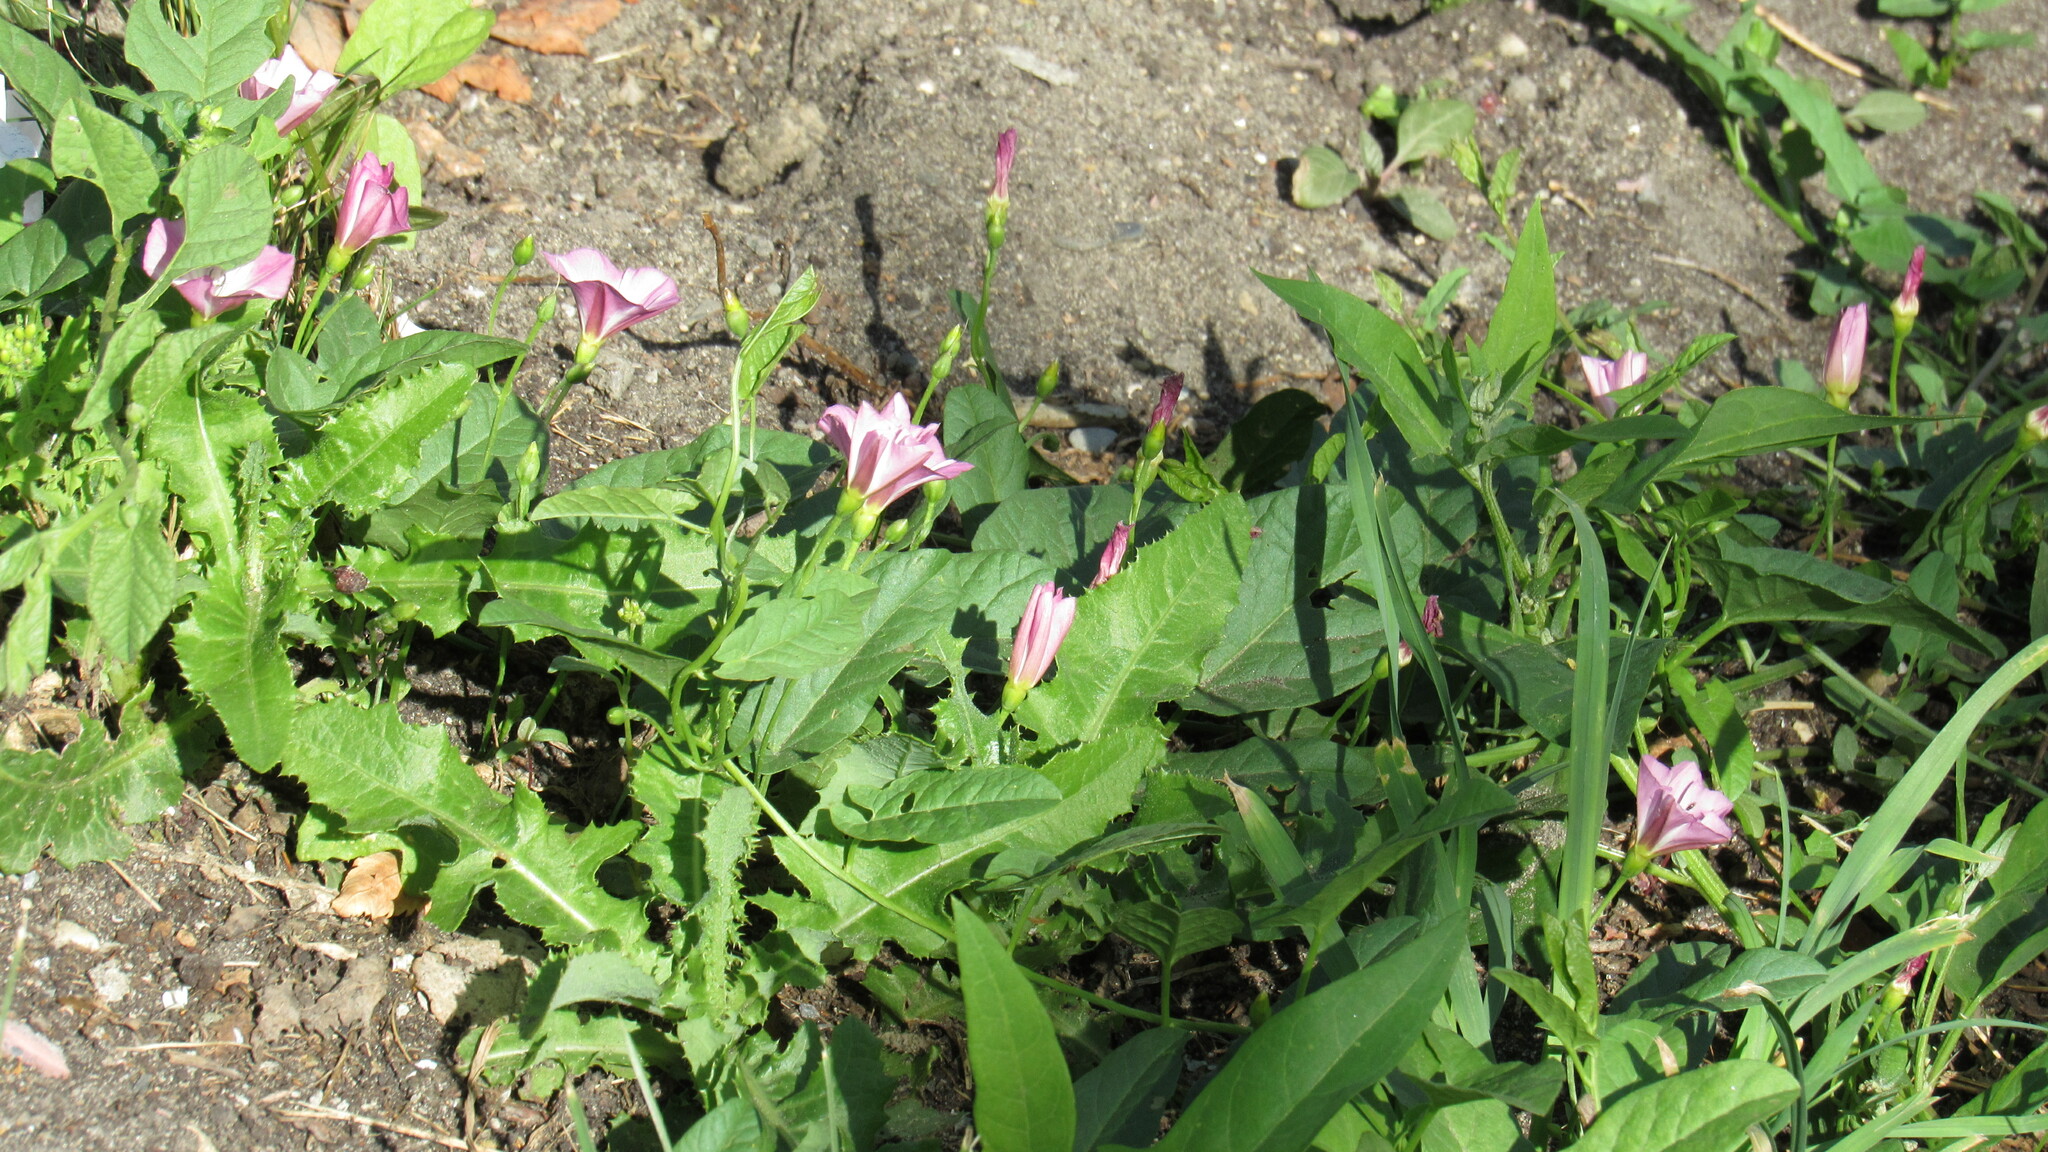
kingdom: Plantae
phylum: Tracheophyta
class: Magnoliopsida
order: Solanales
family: Convolvulaceae
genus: Convolvulus
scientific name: Convolvulus arvensis
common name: Field bindweed
